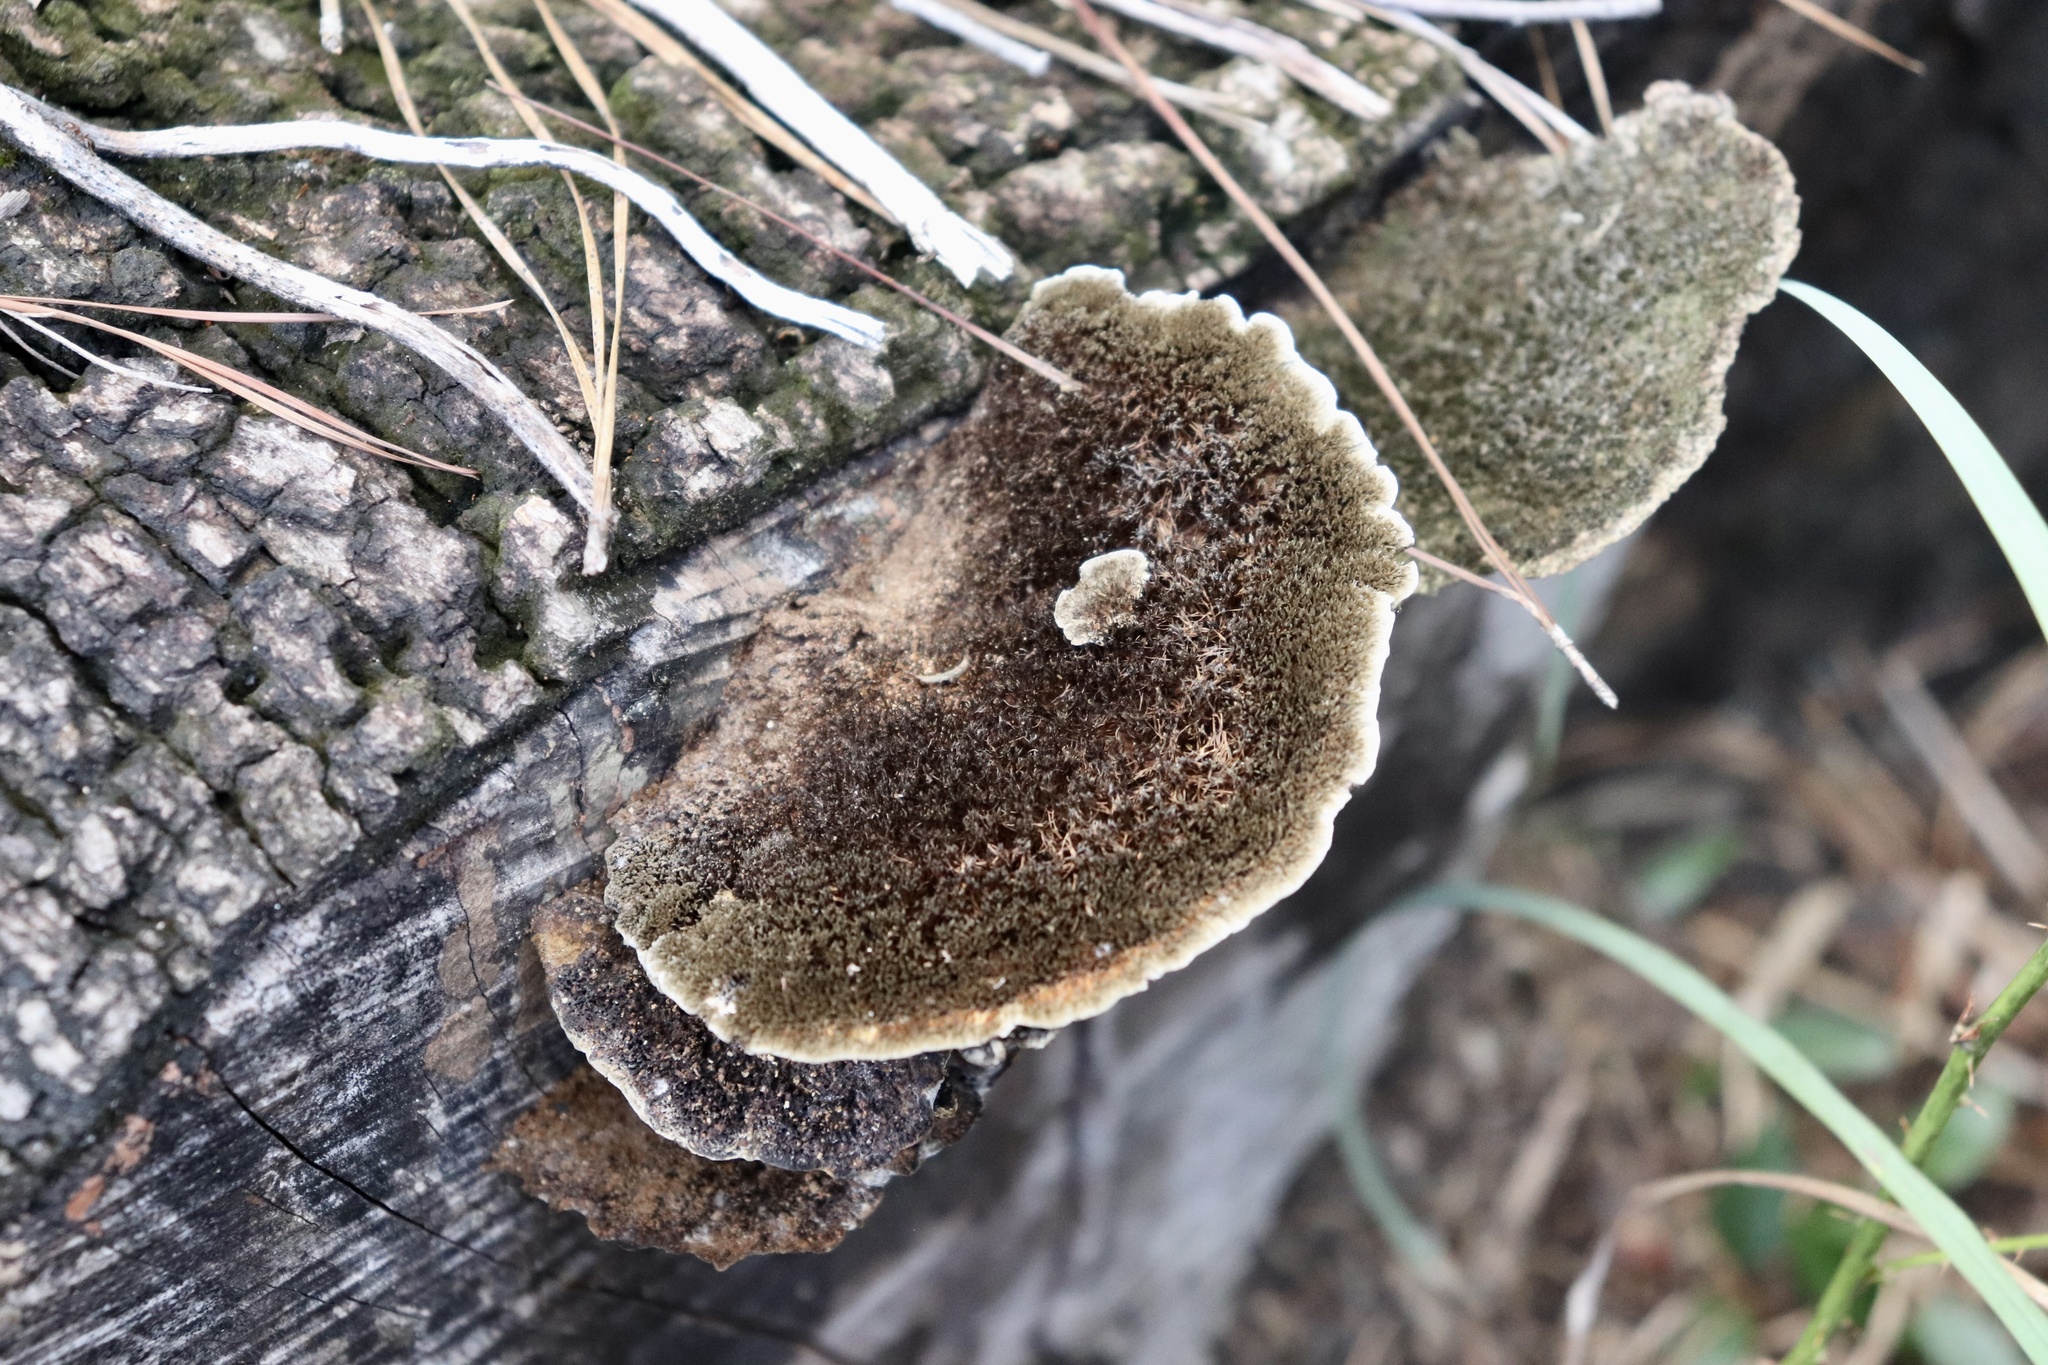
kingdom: Fungi
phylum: Basidiomycota
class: Agaricomycetes
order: Polyporales
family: Cerrenaceae
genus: Cerrena
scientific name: Cerrena hydnoides
